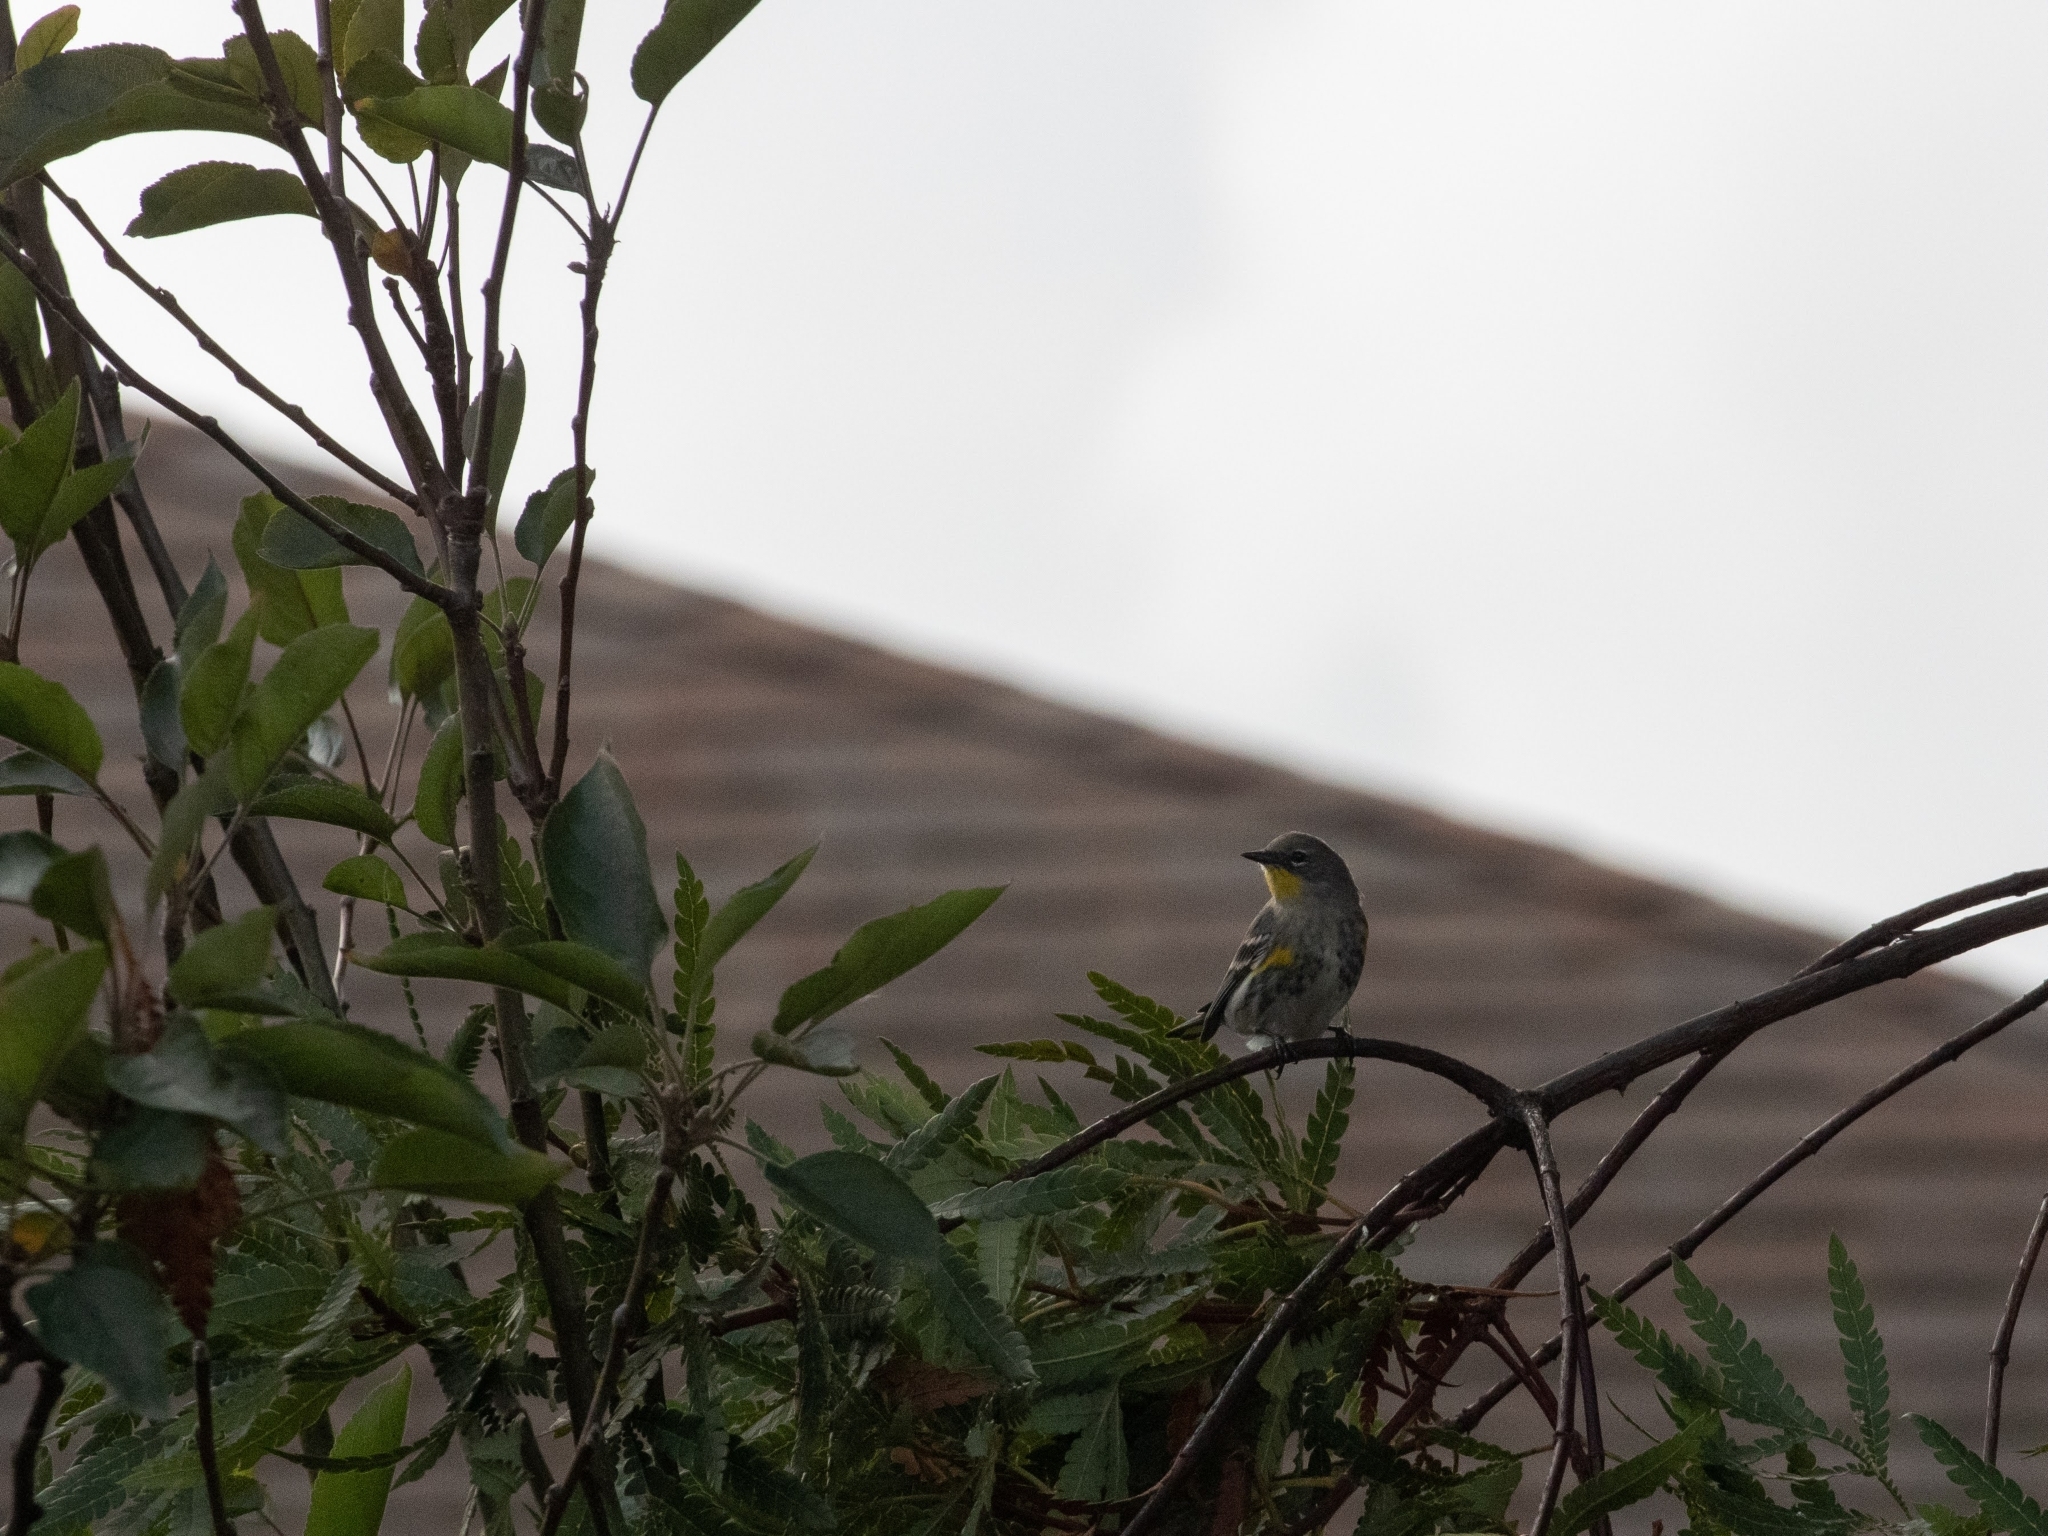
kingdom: Animalia
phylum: Chordata
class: Aves
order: Passeriformes
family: Parulidae
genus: Setophaga
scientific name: Setophaga coronata
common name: Myrtle warbler
